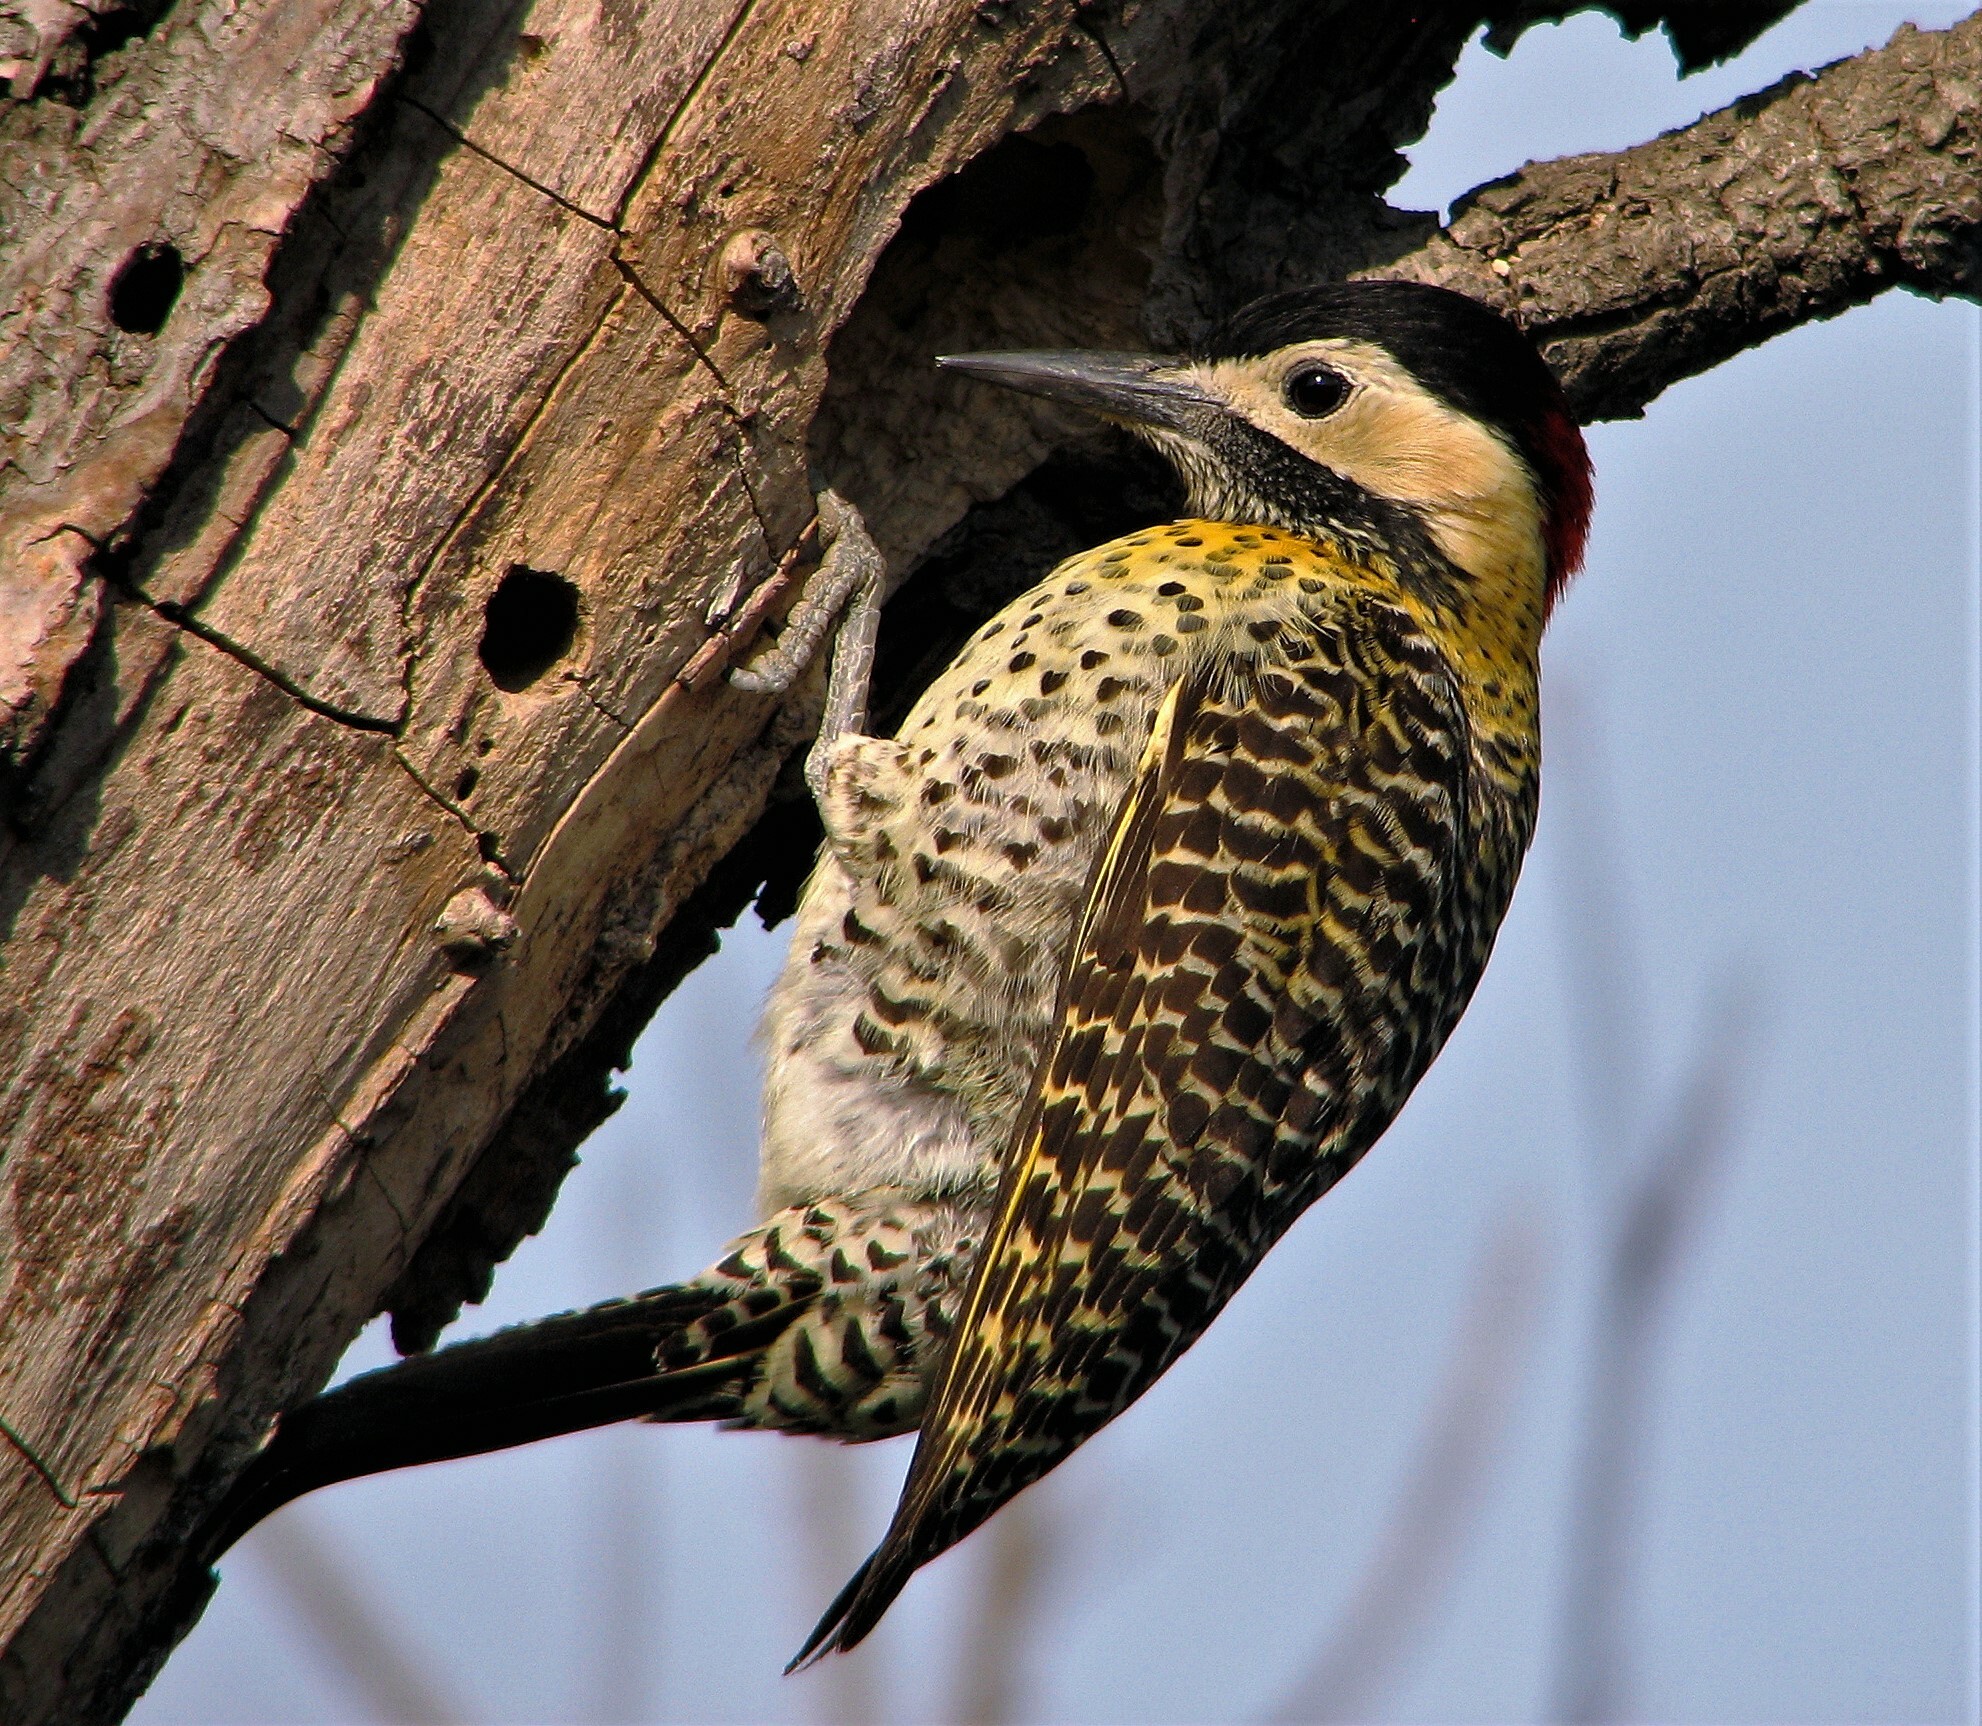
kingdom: Animalia
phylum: Chordata
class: Aves
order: Piciformes
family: Picidae
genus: Colaptes
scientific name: Colaptes melanochloros
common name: Green-barred woodpecker
